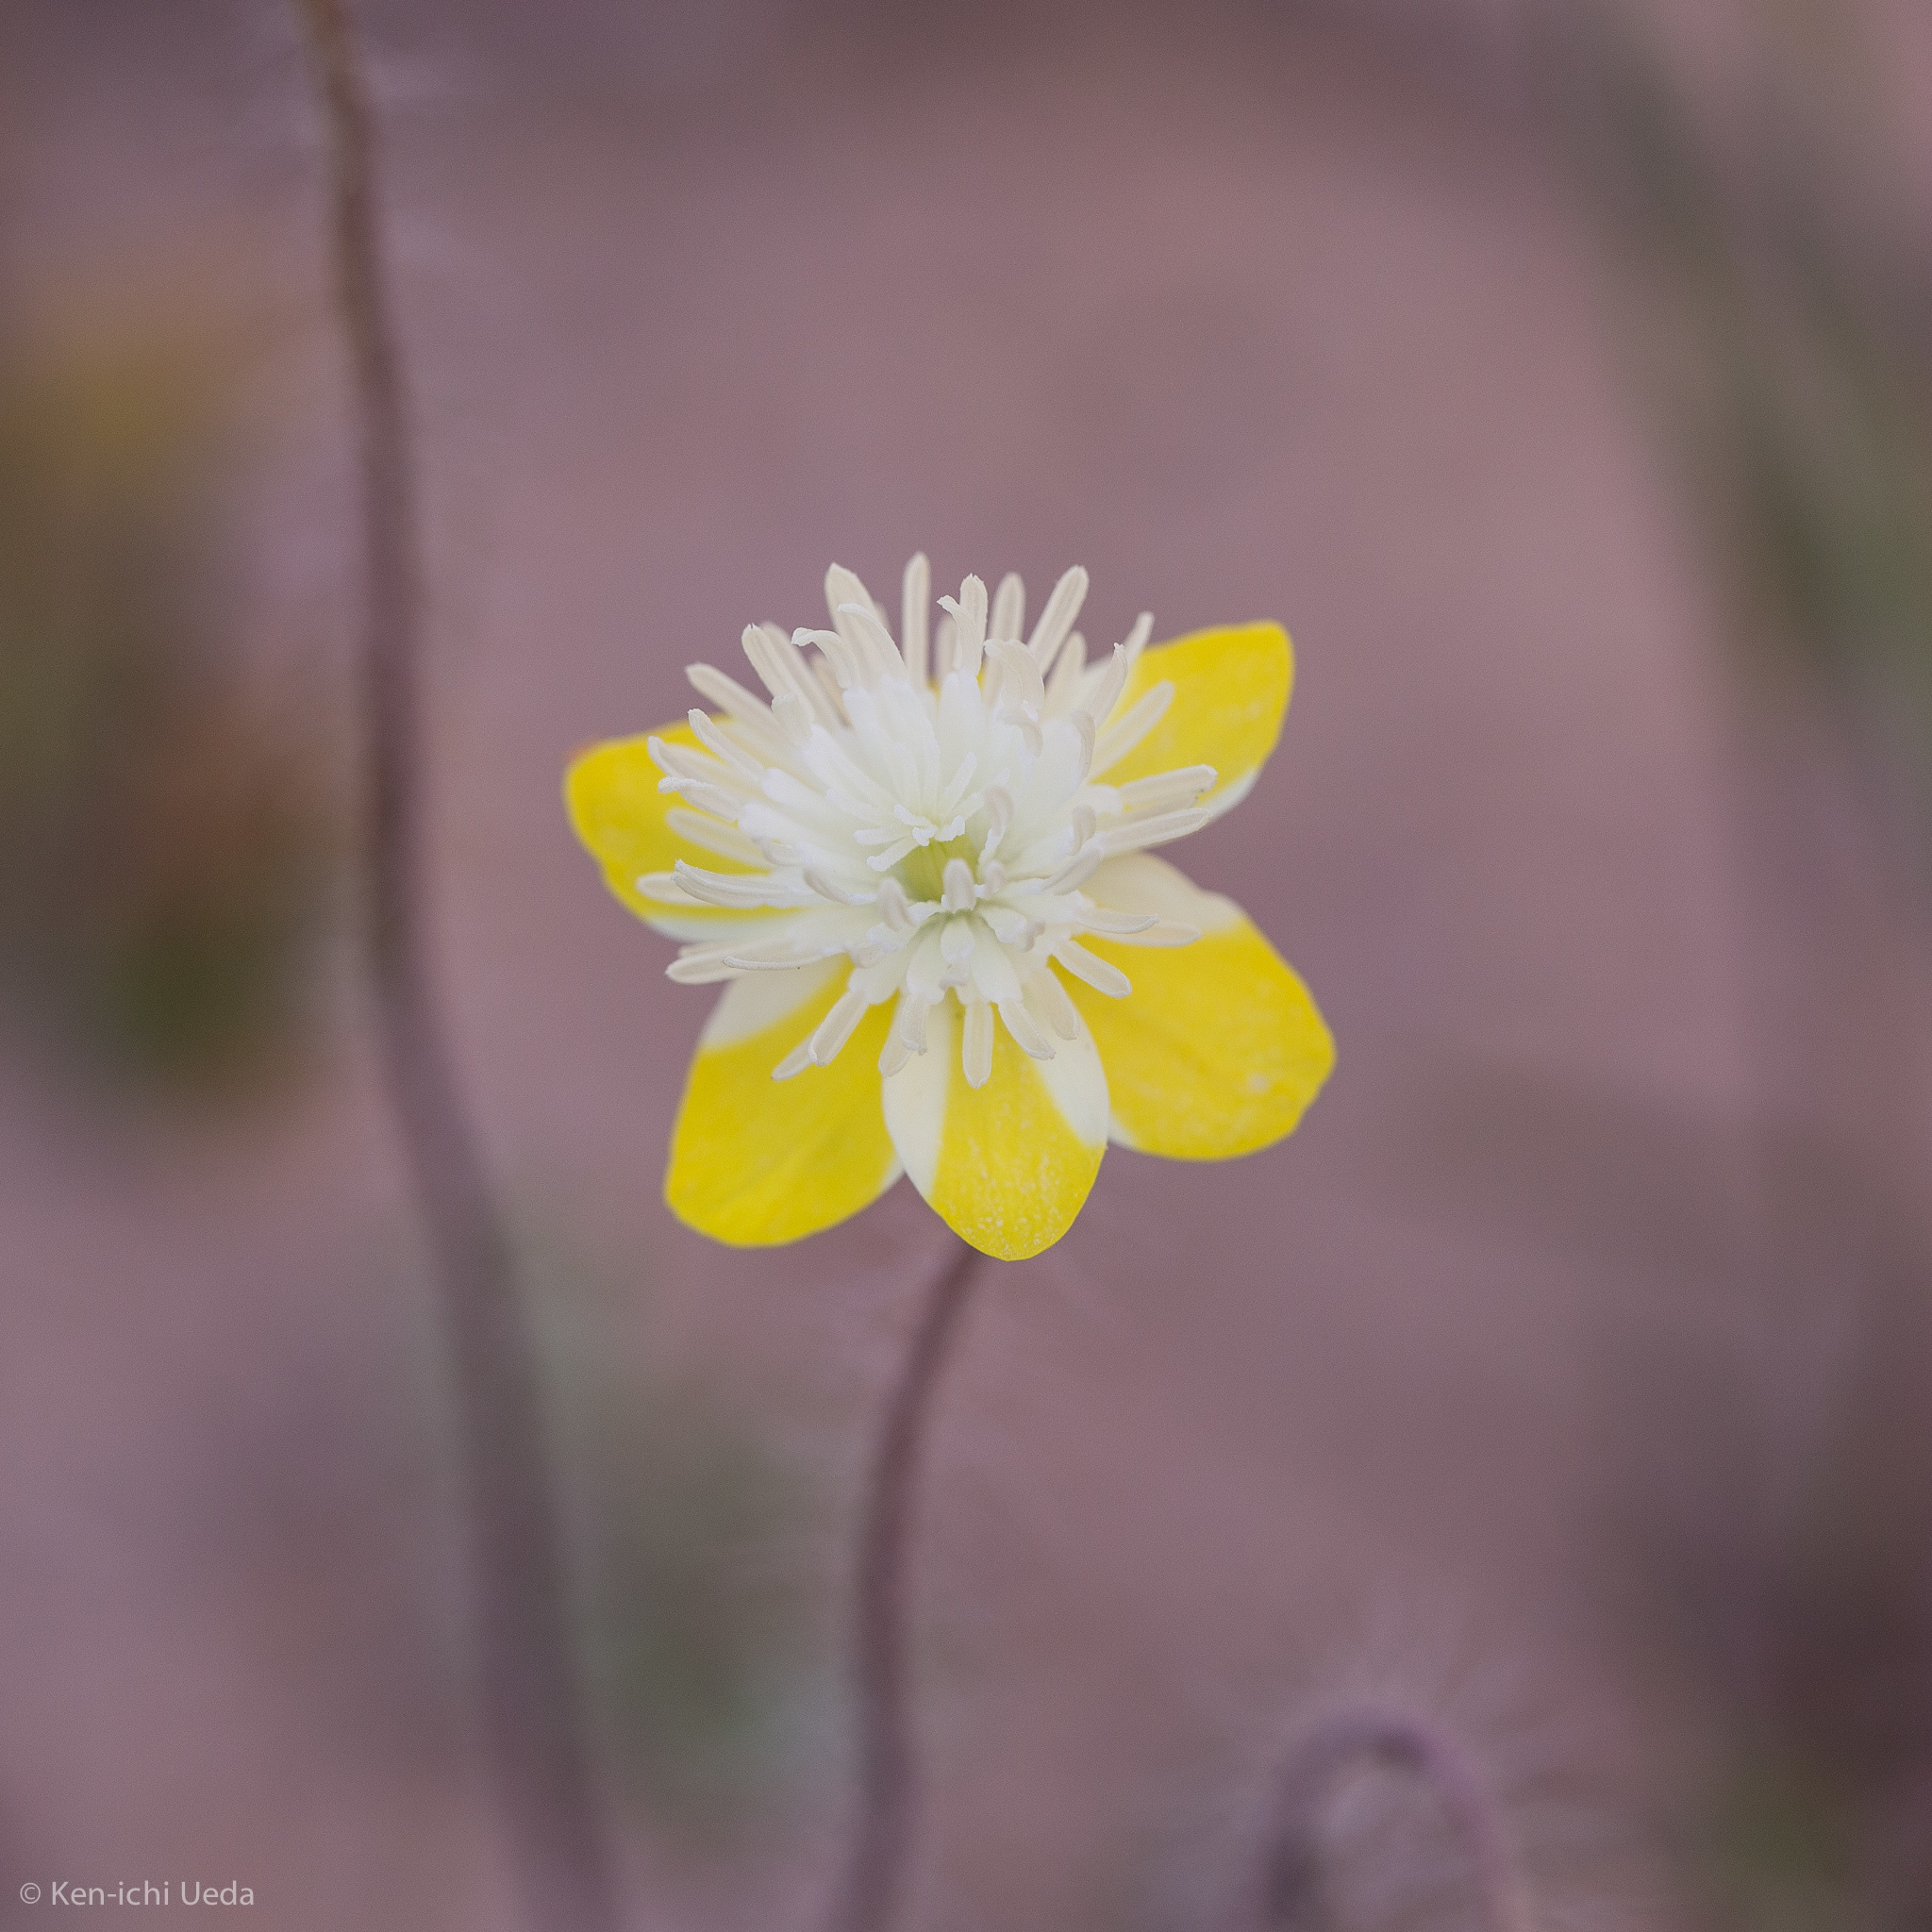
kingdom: Plantae
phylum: Tracheophyta
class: Magnoliopsida
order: Ranunculales
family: Papaveraceae
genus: Platystemon
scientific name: Platystemon californicus
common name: Cream-cups
